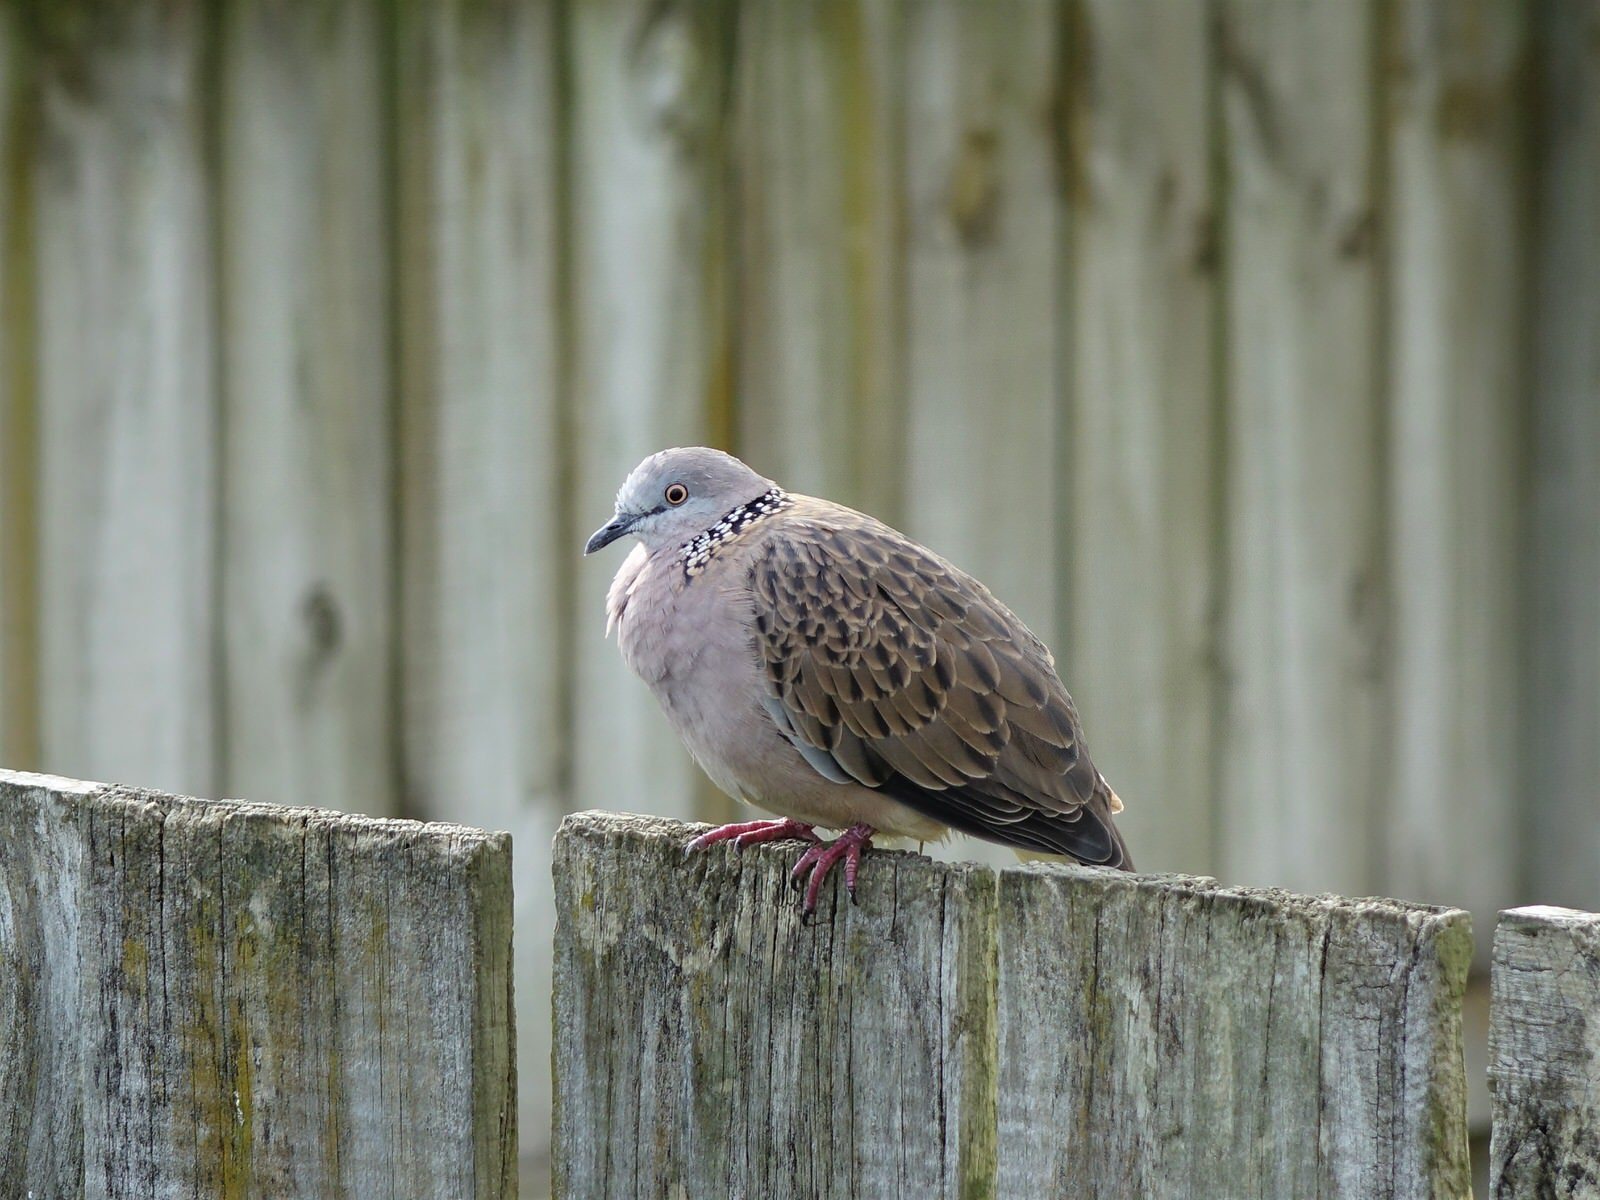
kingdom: Animalia
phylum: Chordata
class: Aves
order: Columbiformes
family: Columbidae
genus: Spilopelia
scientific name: Spilopelia chinensis
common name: Spotted dove
